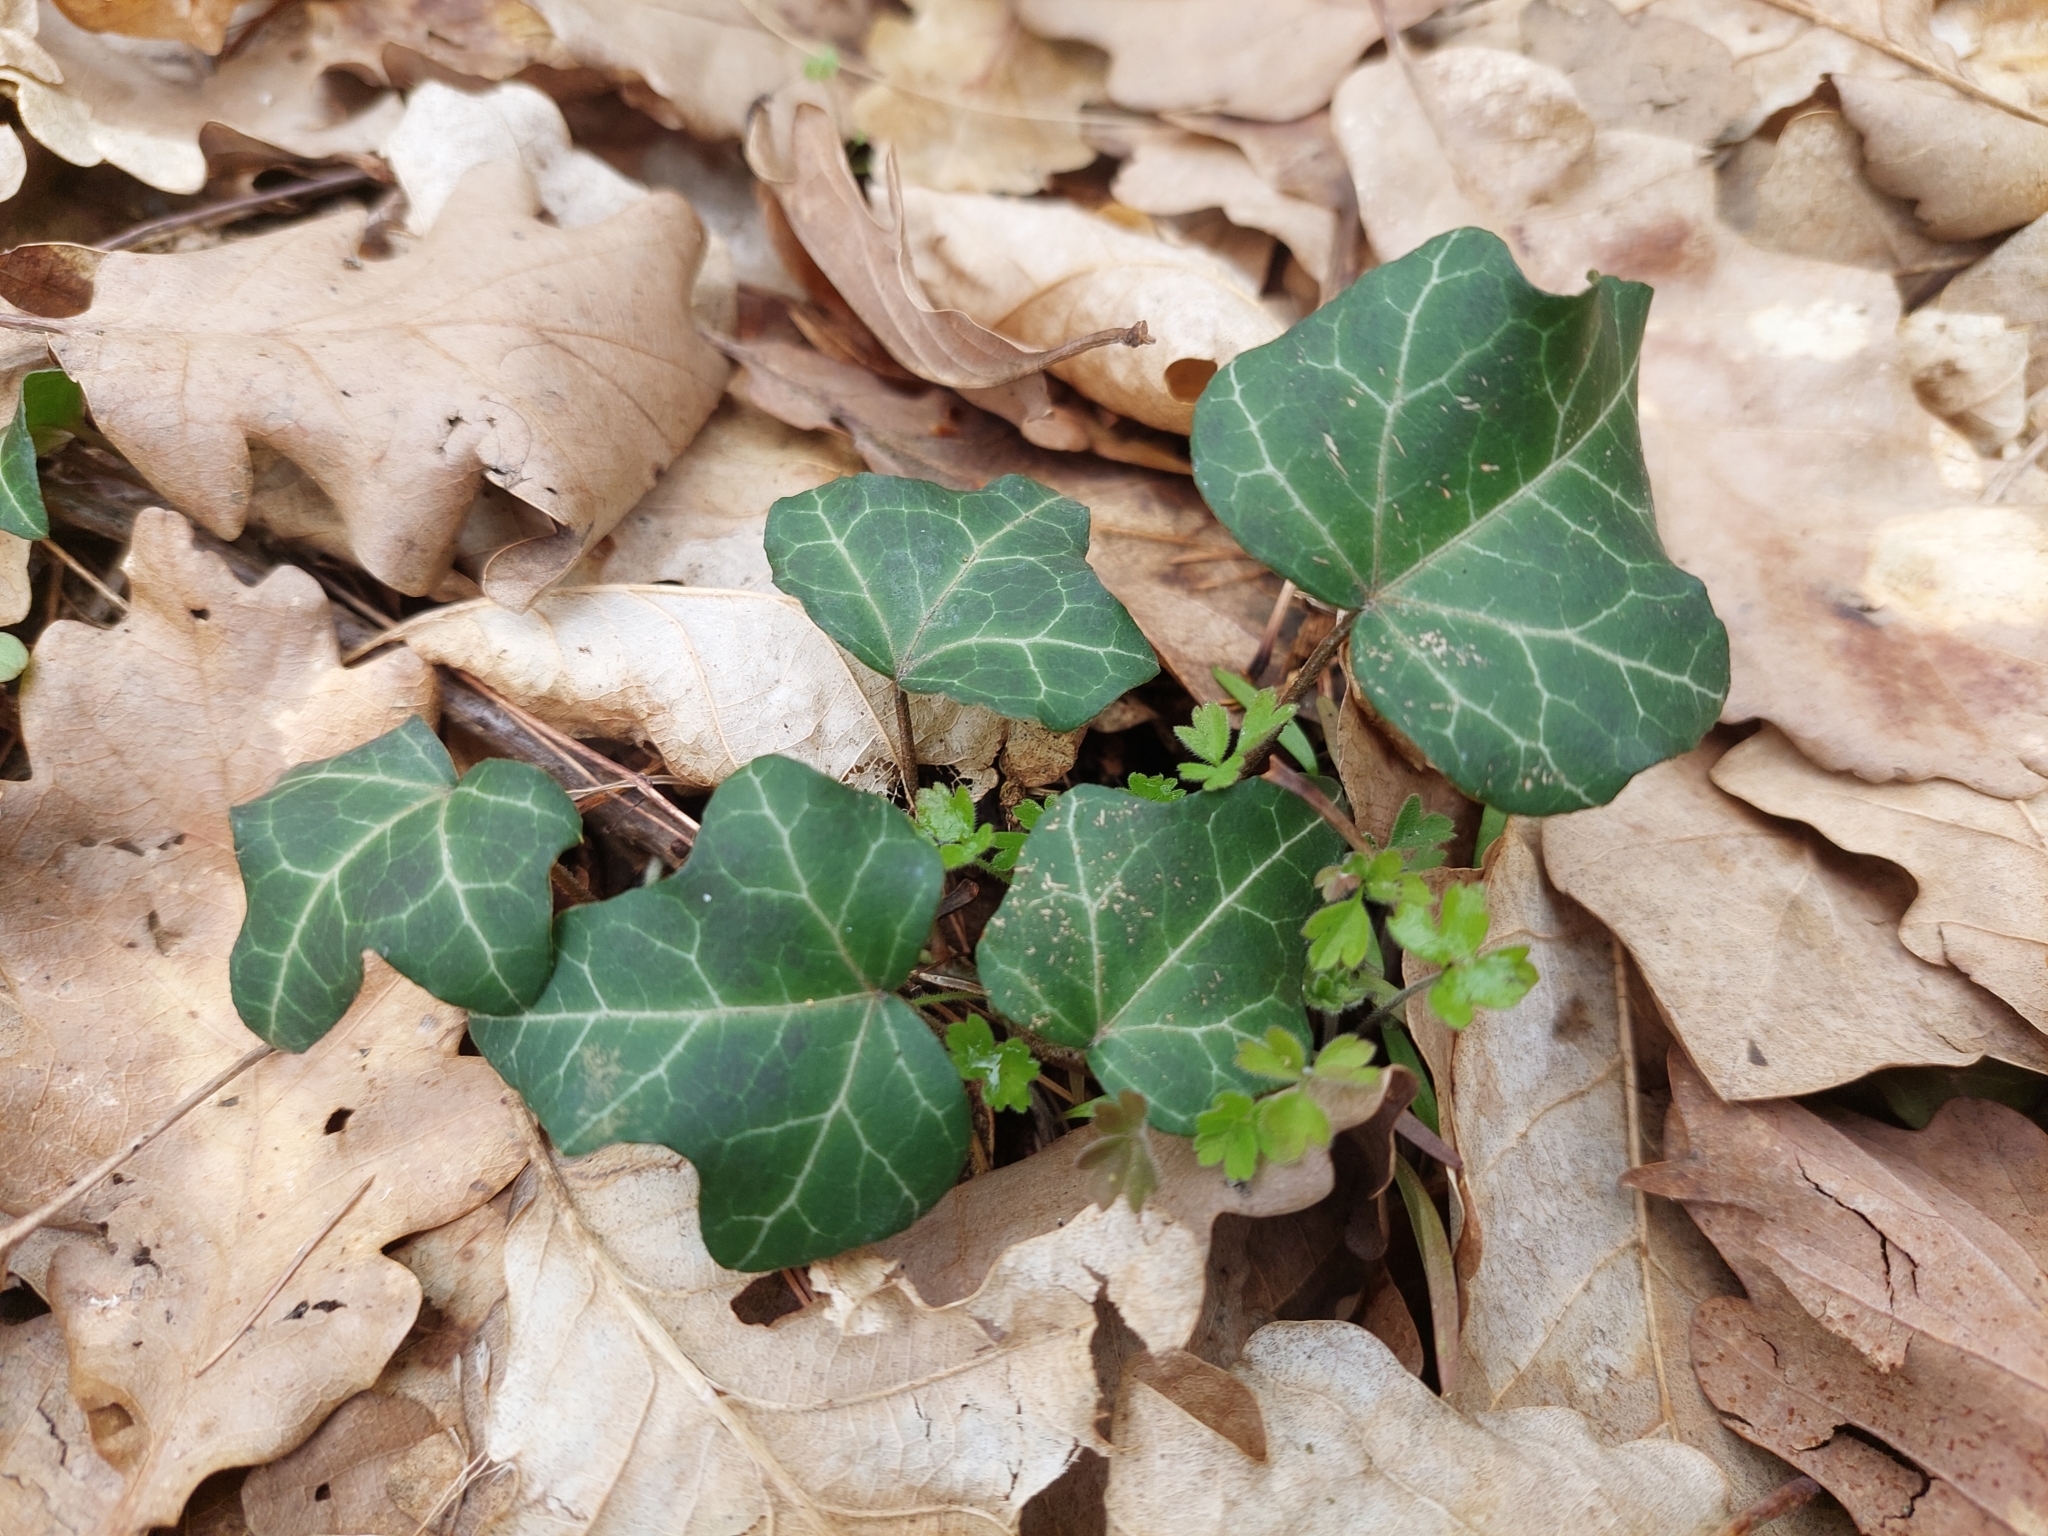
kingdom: Plantae
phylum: Tracheophyta
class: Magnoliopsida
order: Apiales
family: Araliaceae
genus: Hedera
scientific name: Hedera helix
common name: Ivy
